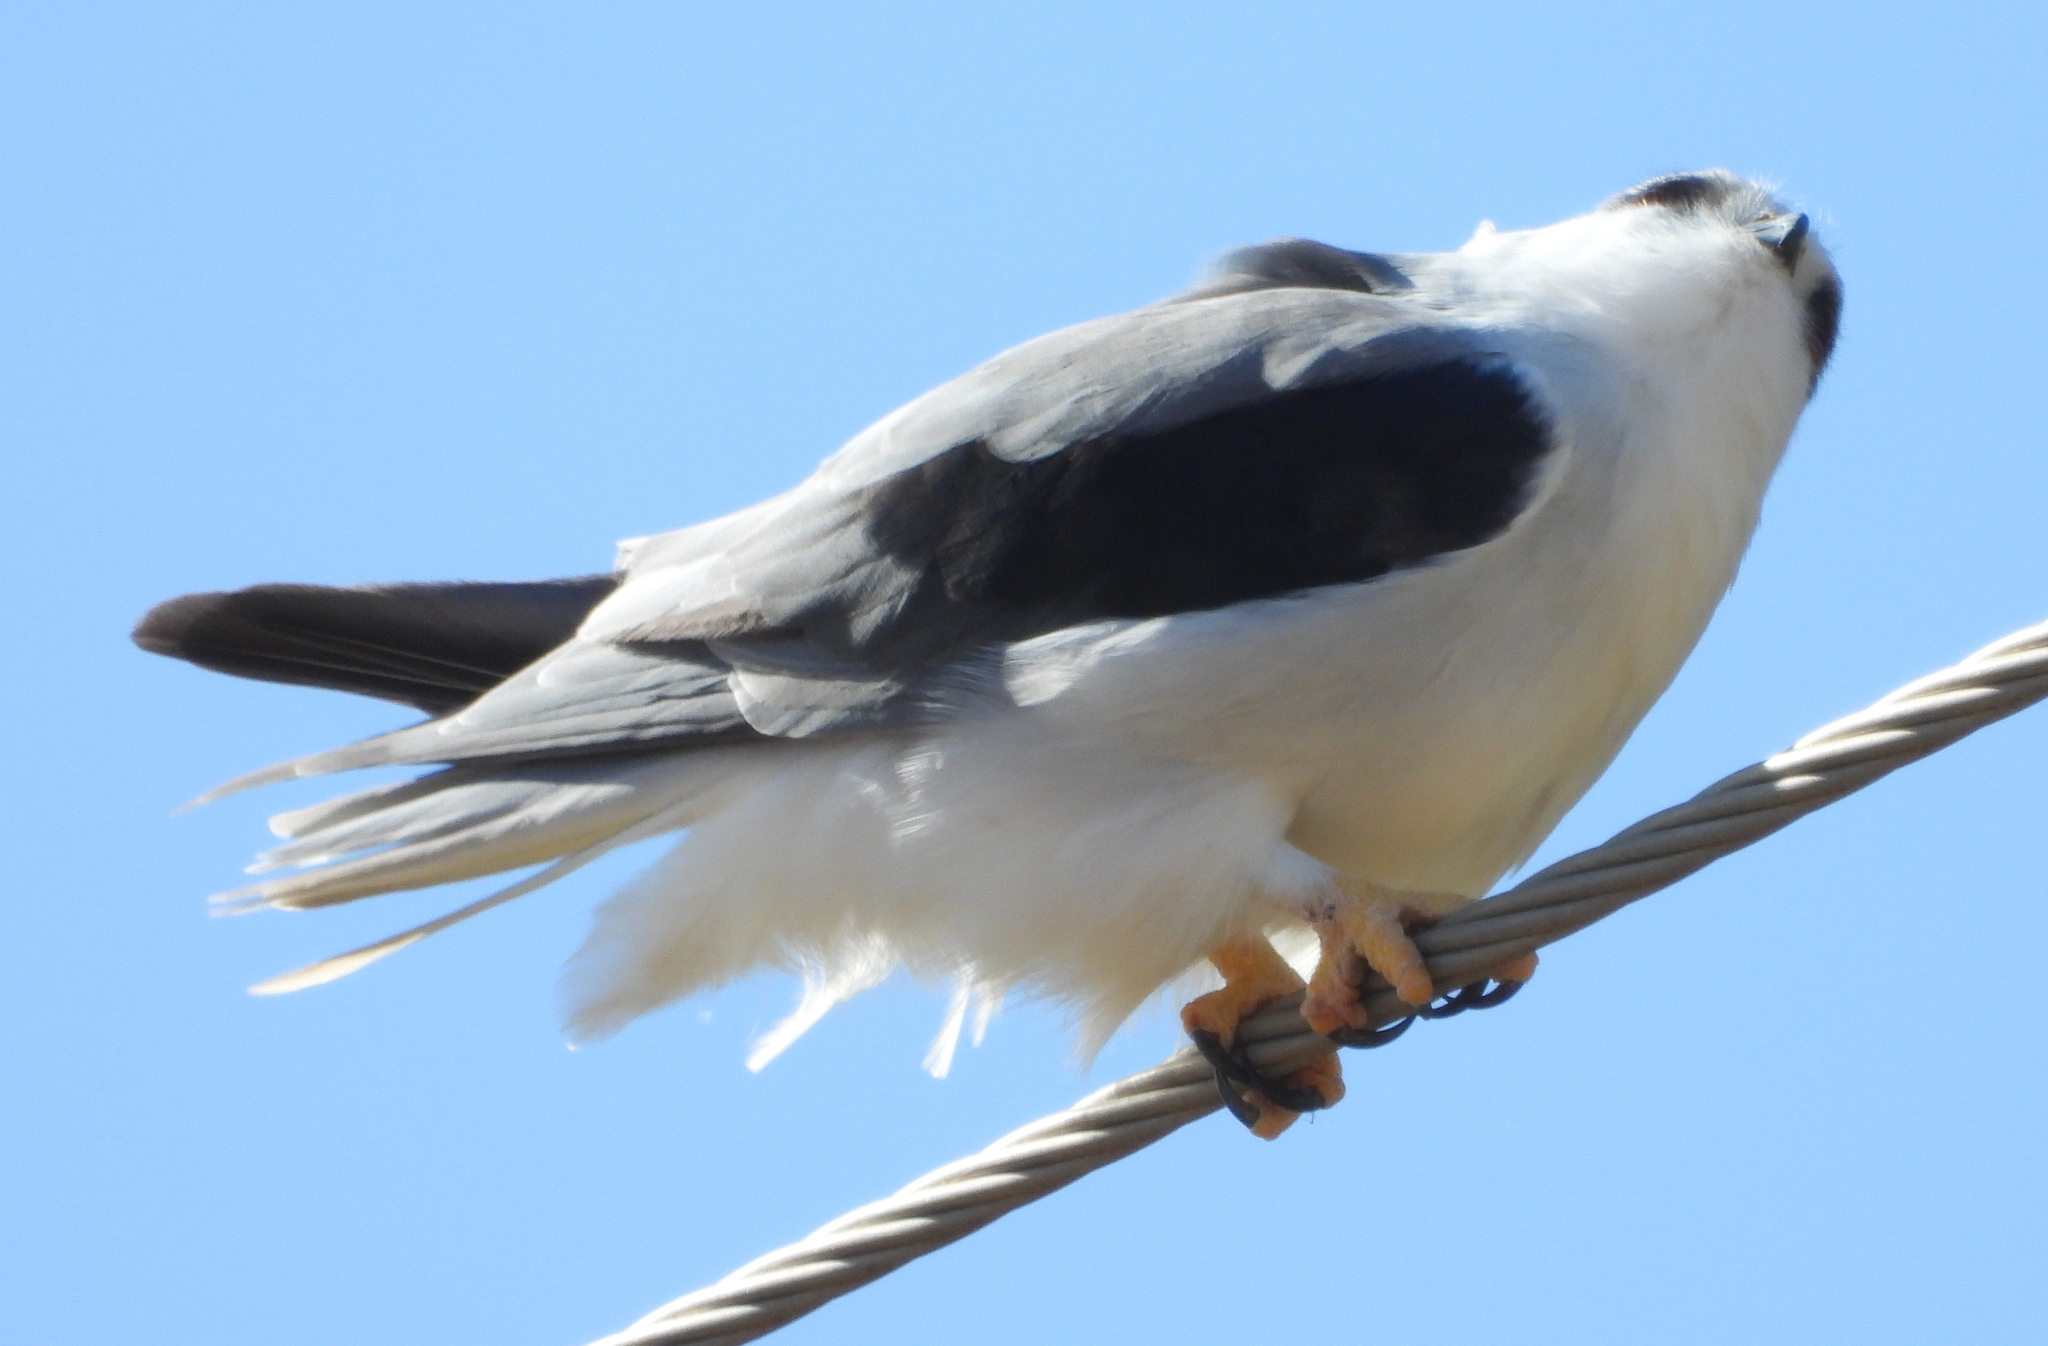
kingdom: Animalia
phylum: Chordata
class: Aves
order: Accipitriformes
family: Accipitridae
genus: Elanus
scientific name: Elanus caeruleus
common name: Black-winged kite
